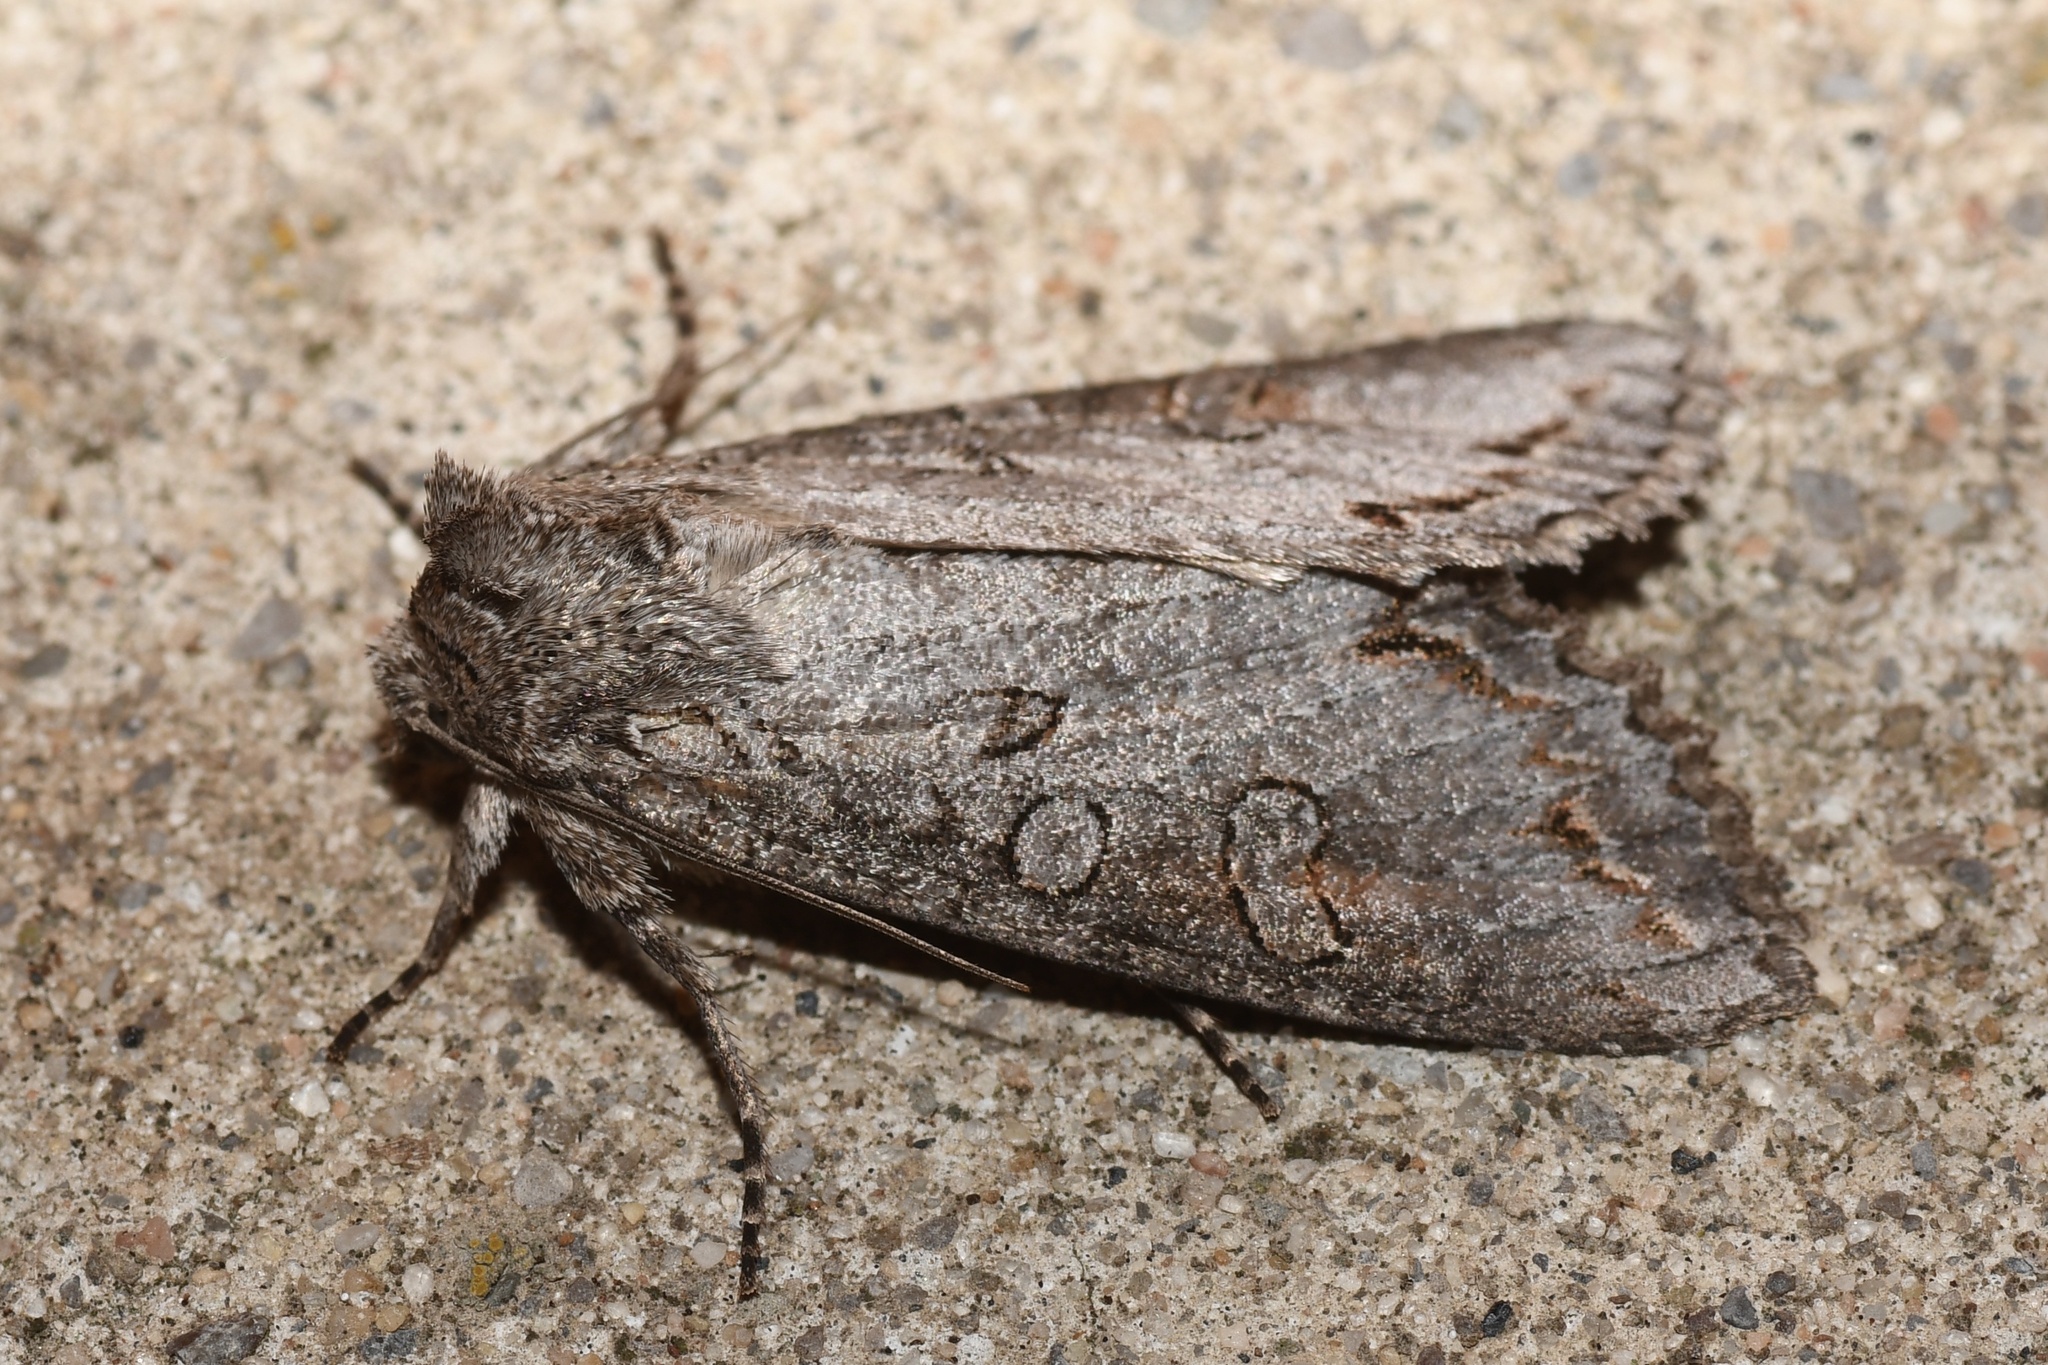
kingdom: Animalia
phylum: Arthropoda
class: Insecta
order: Lepidoptera
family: Noctuidae
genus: Polia
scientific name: Polia purpurissata
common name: Purple arches moth
